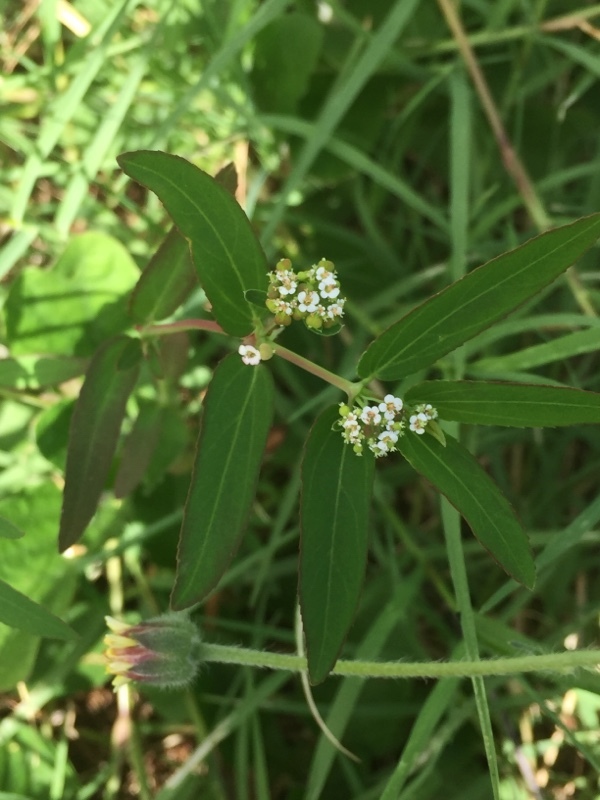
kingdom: Plantae
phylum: Tracheophyta
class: Magnoliopsida
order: Malpighiales
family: Euphorbiaceae
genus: Euphorbia
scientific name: Euphorbia hypericifolia
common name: Graceful sandmat
